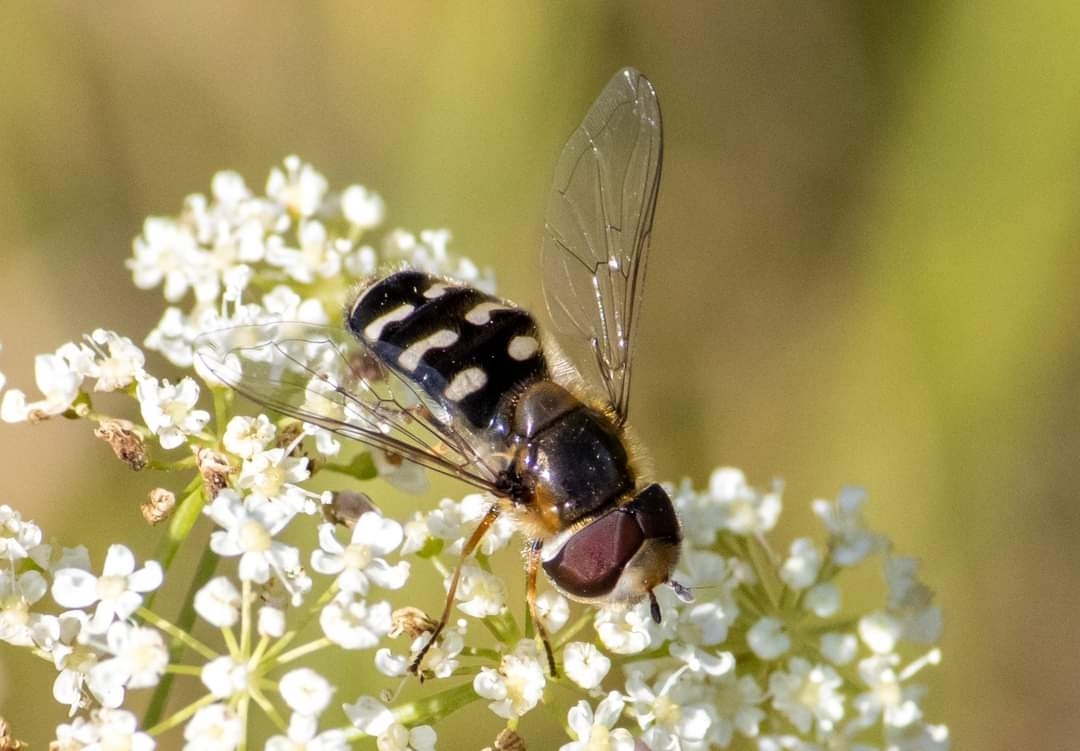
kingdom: Animalia
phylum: Arthropoda
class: Insecta
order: Diptera
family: Syrphidae
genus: Scaeva
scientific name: Scaeva pyrastri
